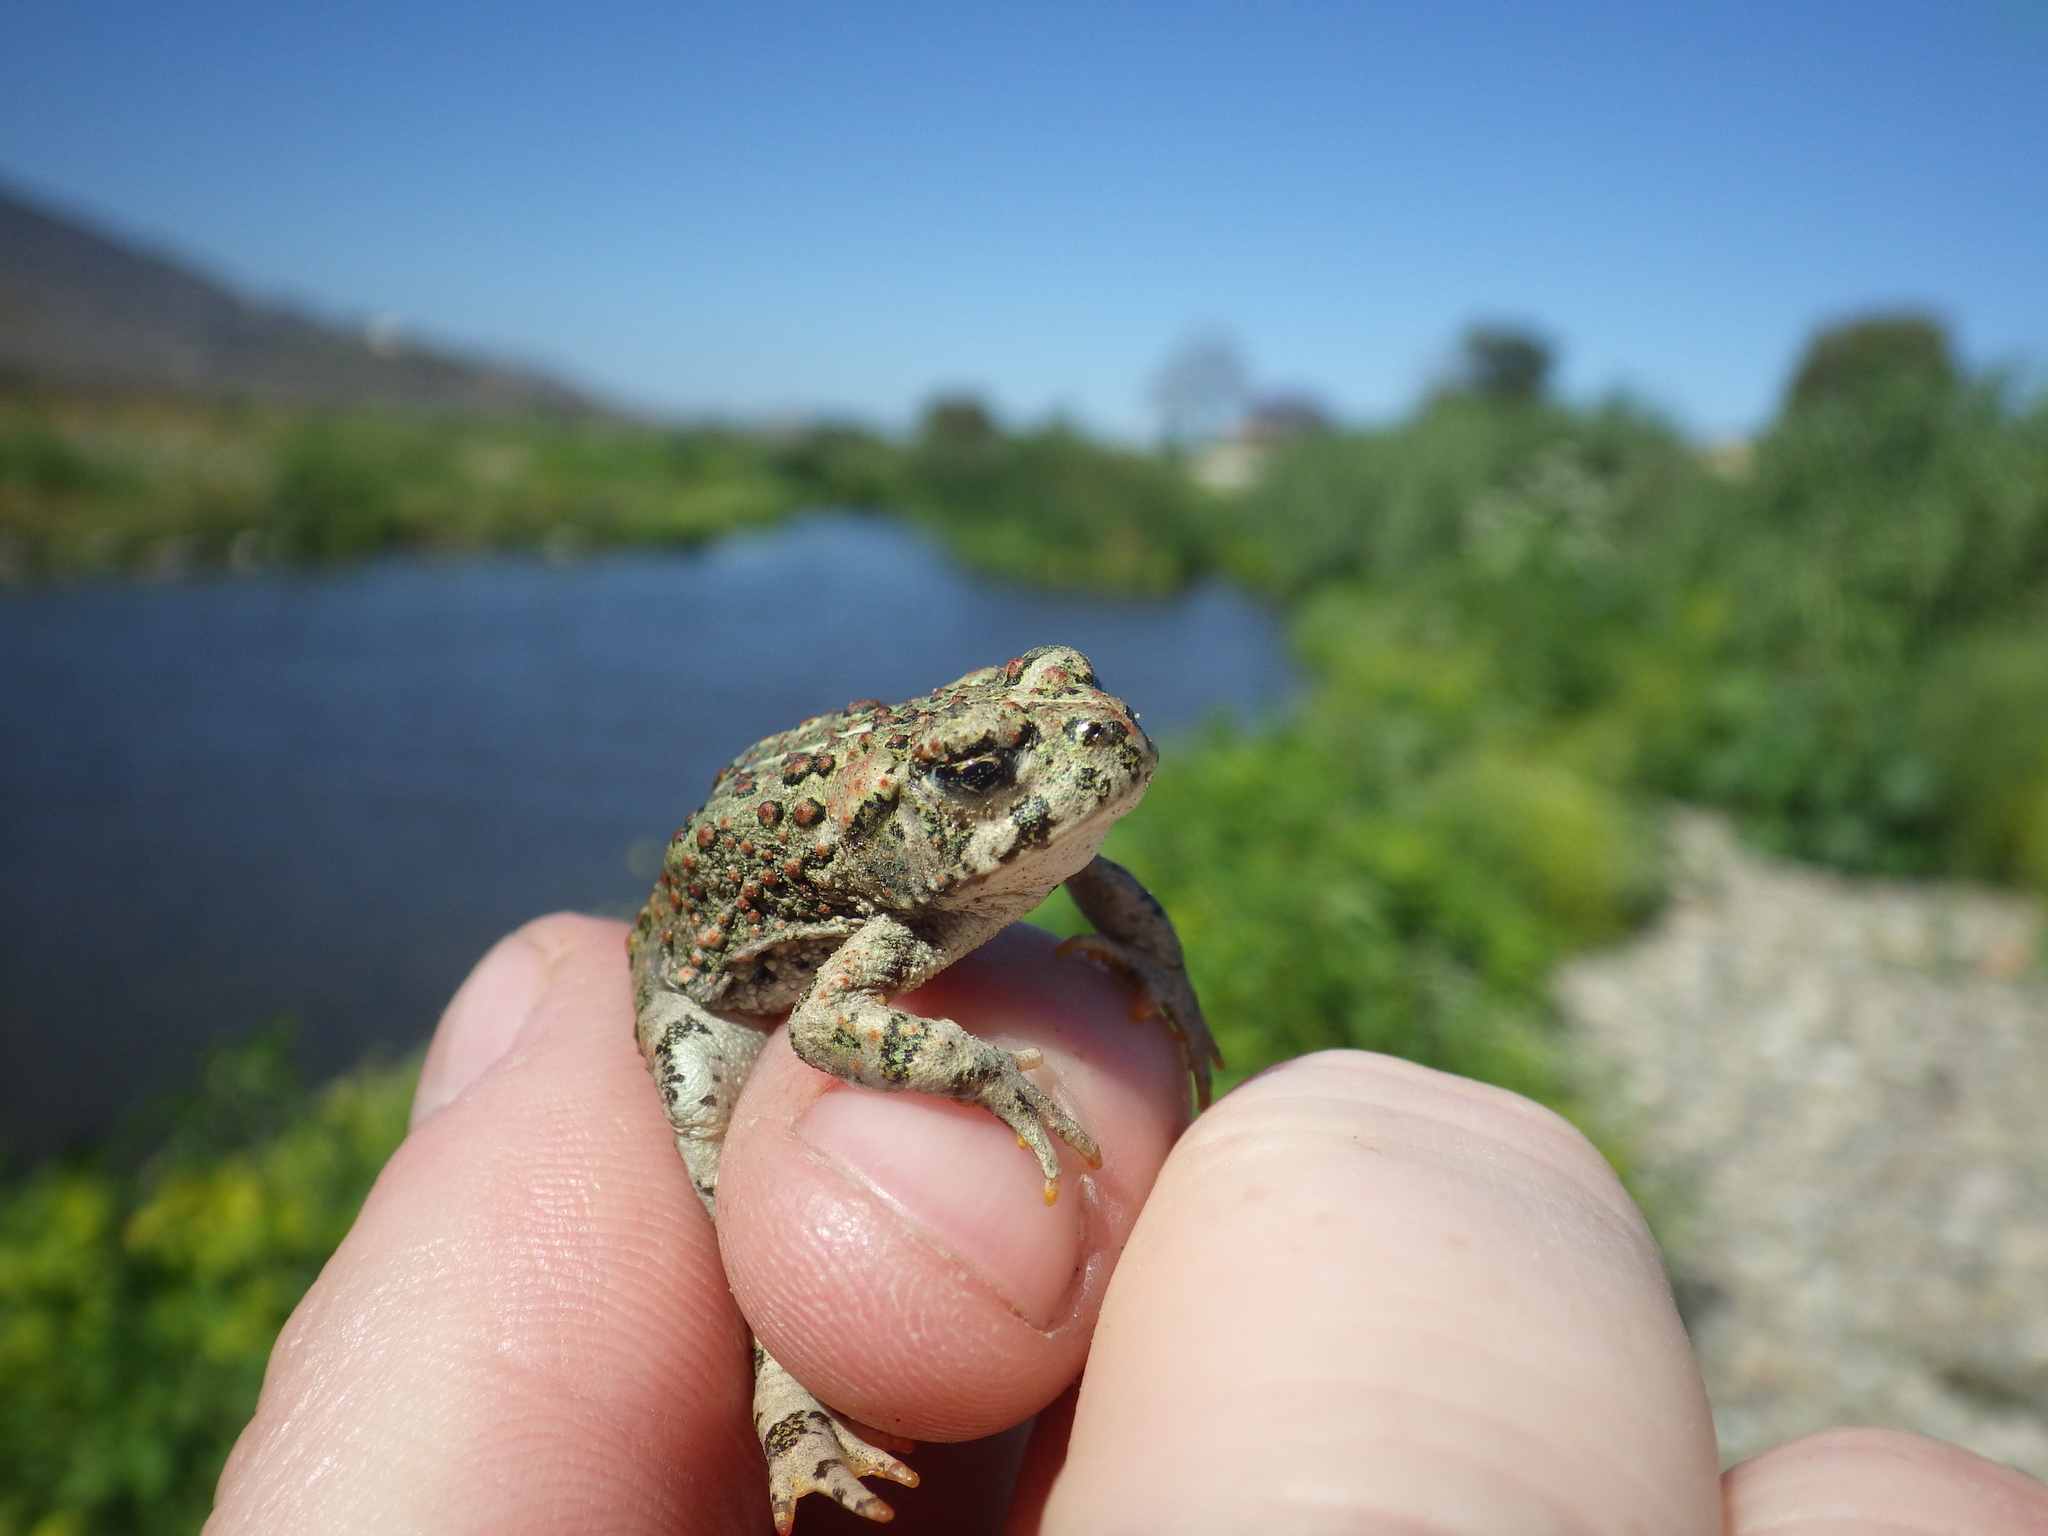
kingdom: Animalia
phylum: Chordata
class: Amphibia
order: Anura
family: Bufonidae
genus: Anaxyrus
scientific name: Anaxyrus boreas
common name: Western toad
